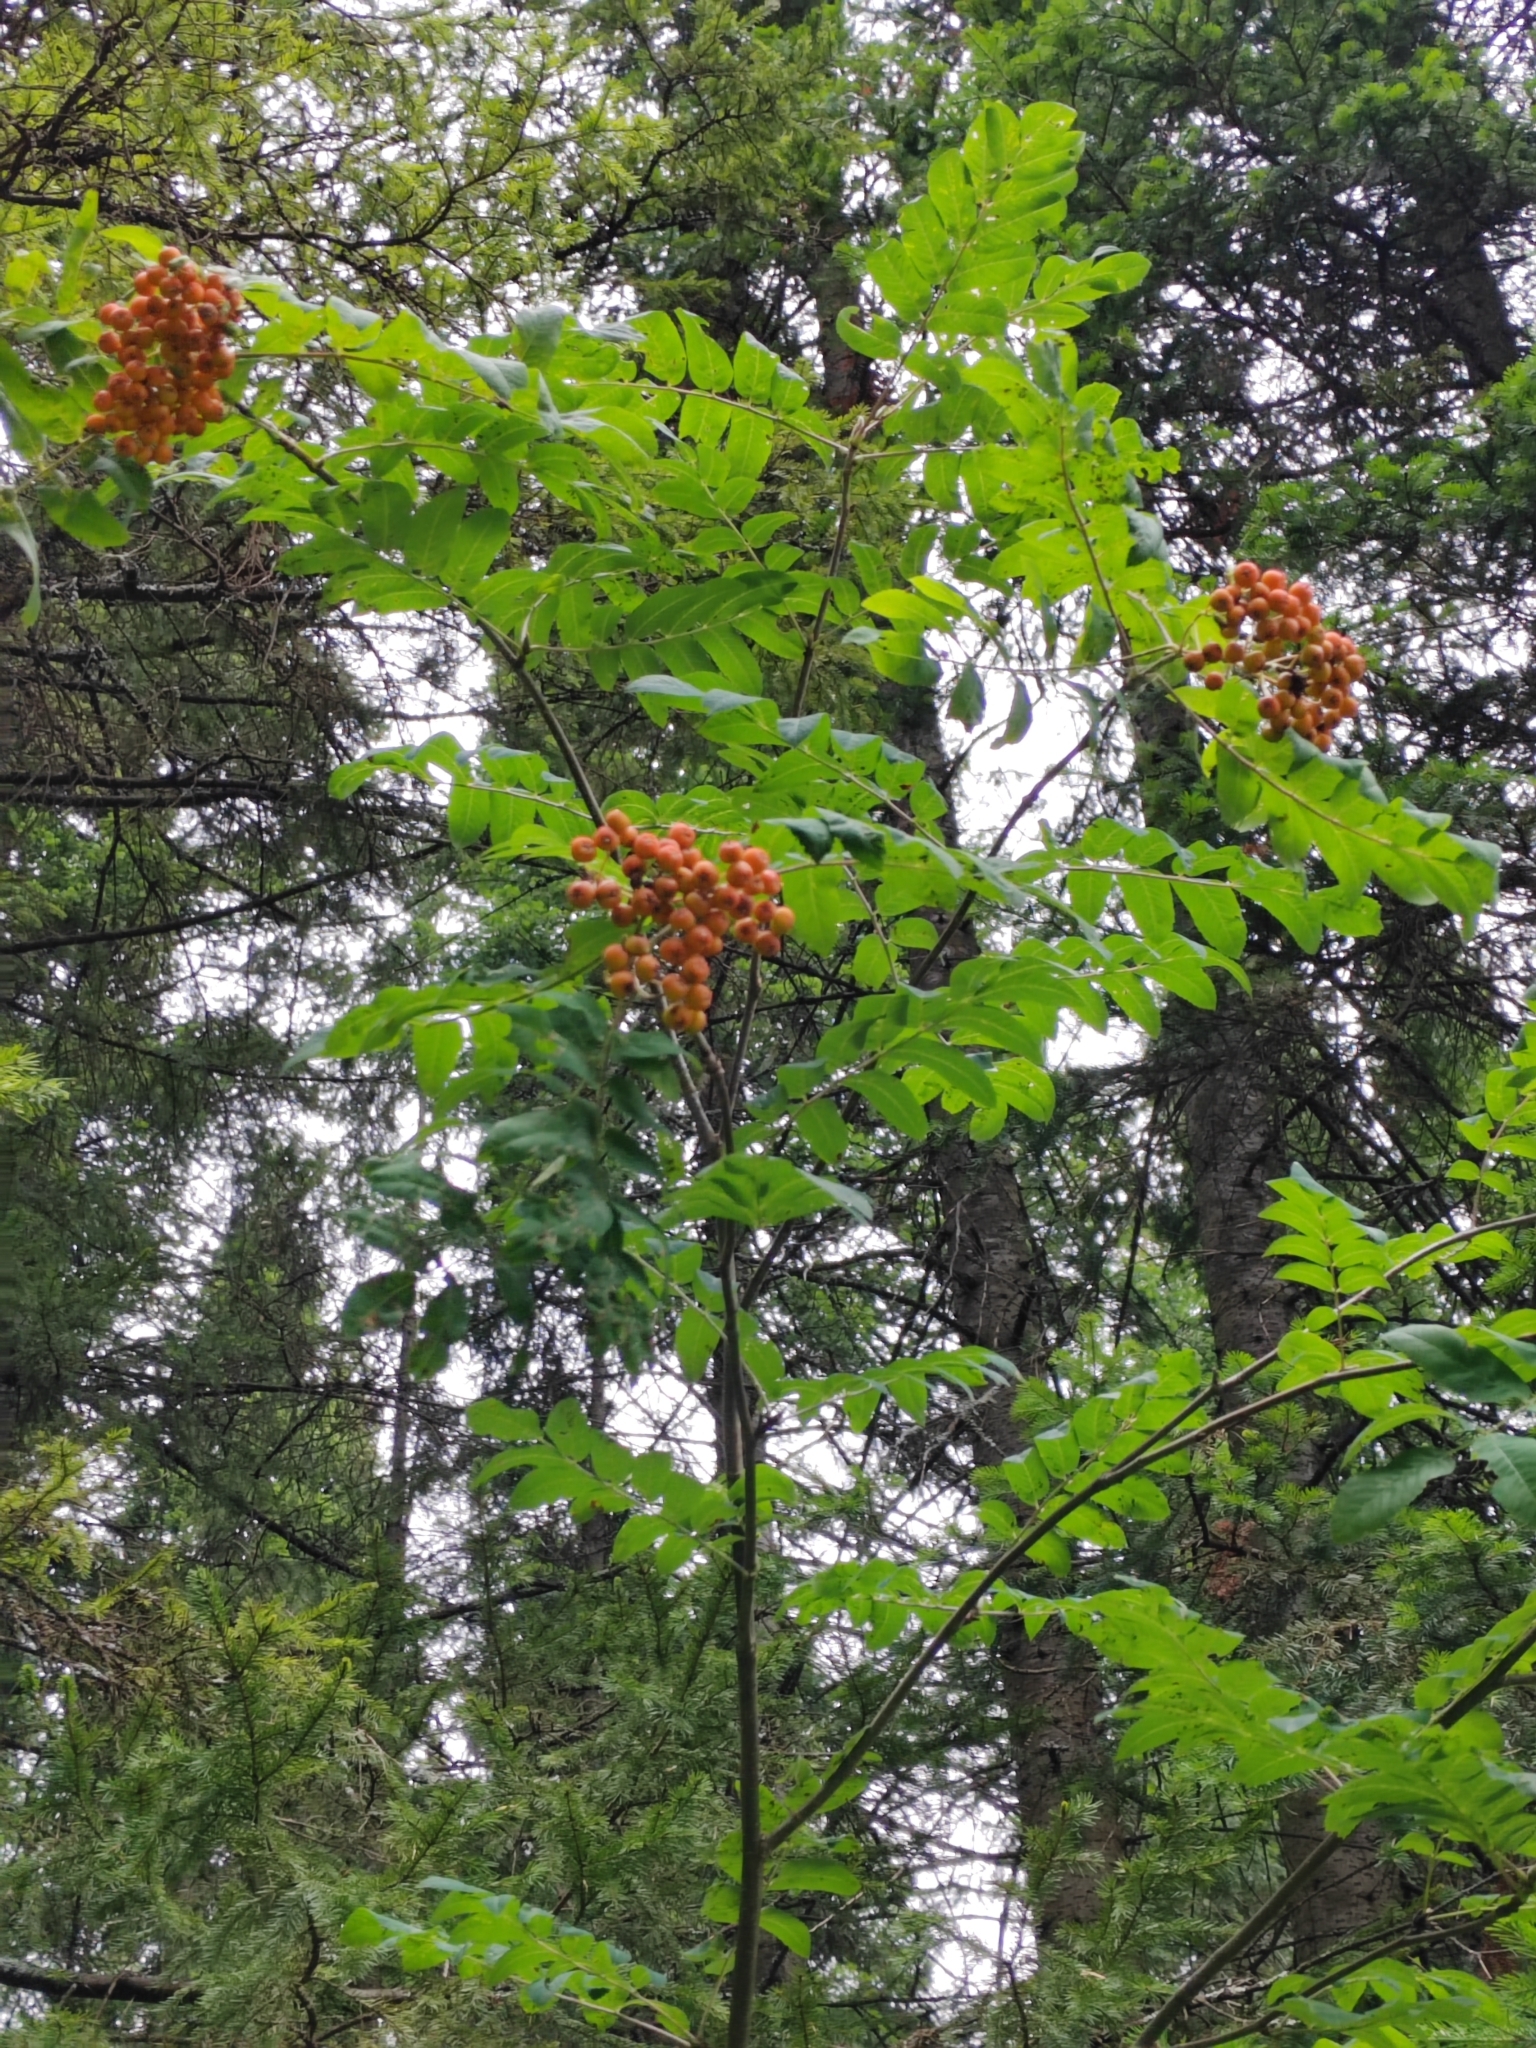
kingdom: Plantae
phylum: Tracheophyta
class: Magnoliopsida
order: Rosales
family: Rosaceae
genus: Sorbus
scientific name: Sorbus aucuparia
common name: Rowan
